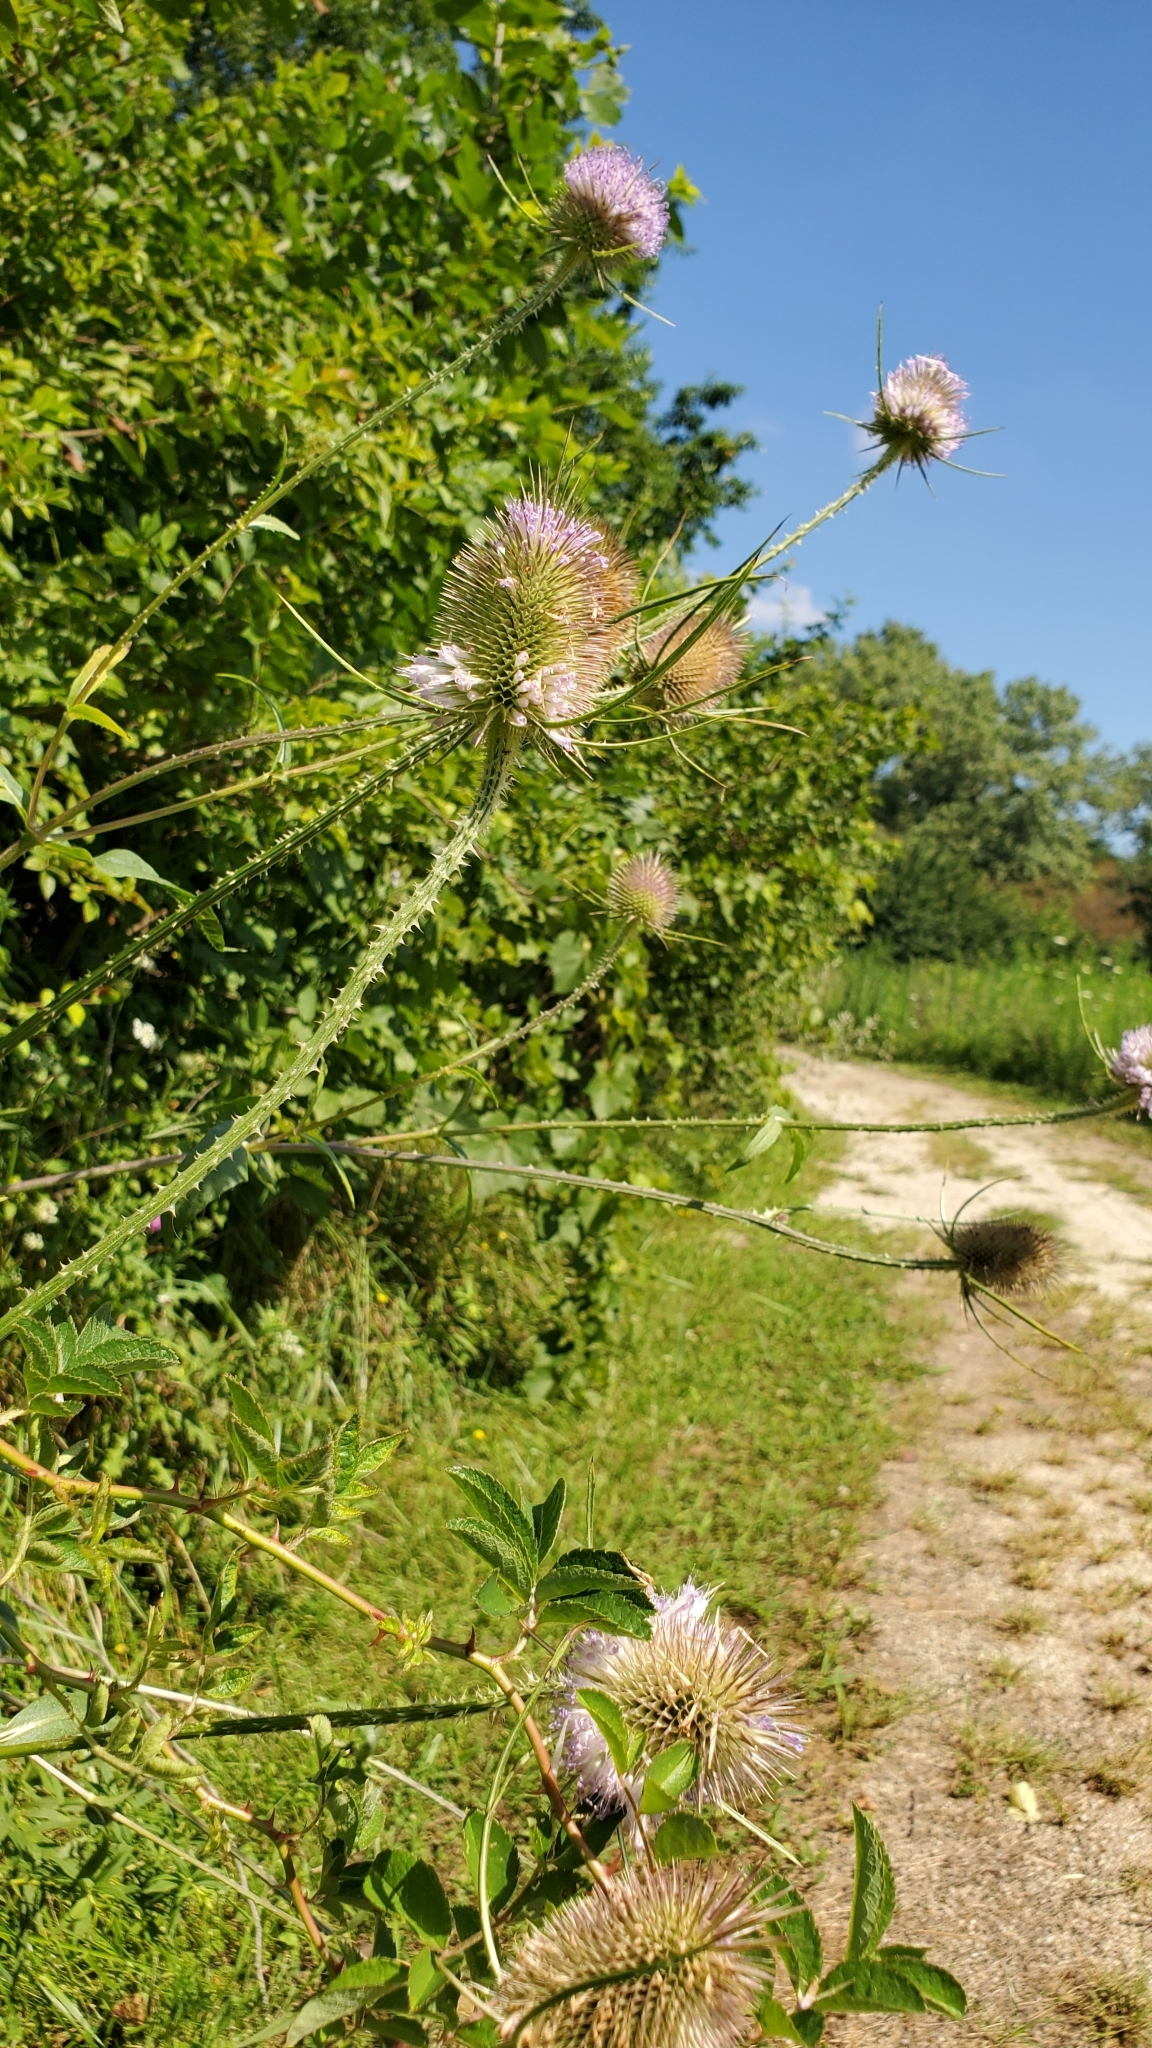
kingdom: Plantae
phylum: Tracheophyta
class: Magnoliopsida
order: Dipsacales
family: Caprifoliaceae
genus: Dipsacus
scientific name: Dipsacus fullonum
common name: Teasel
